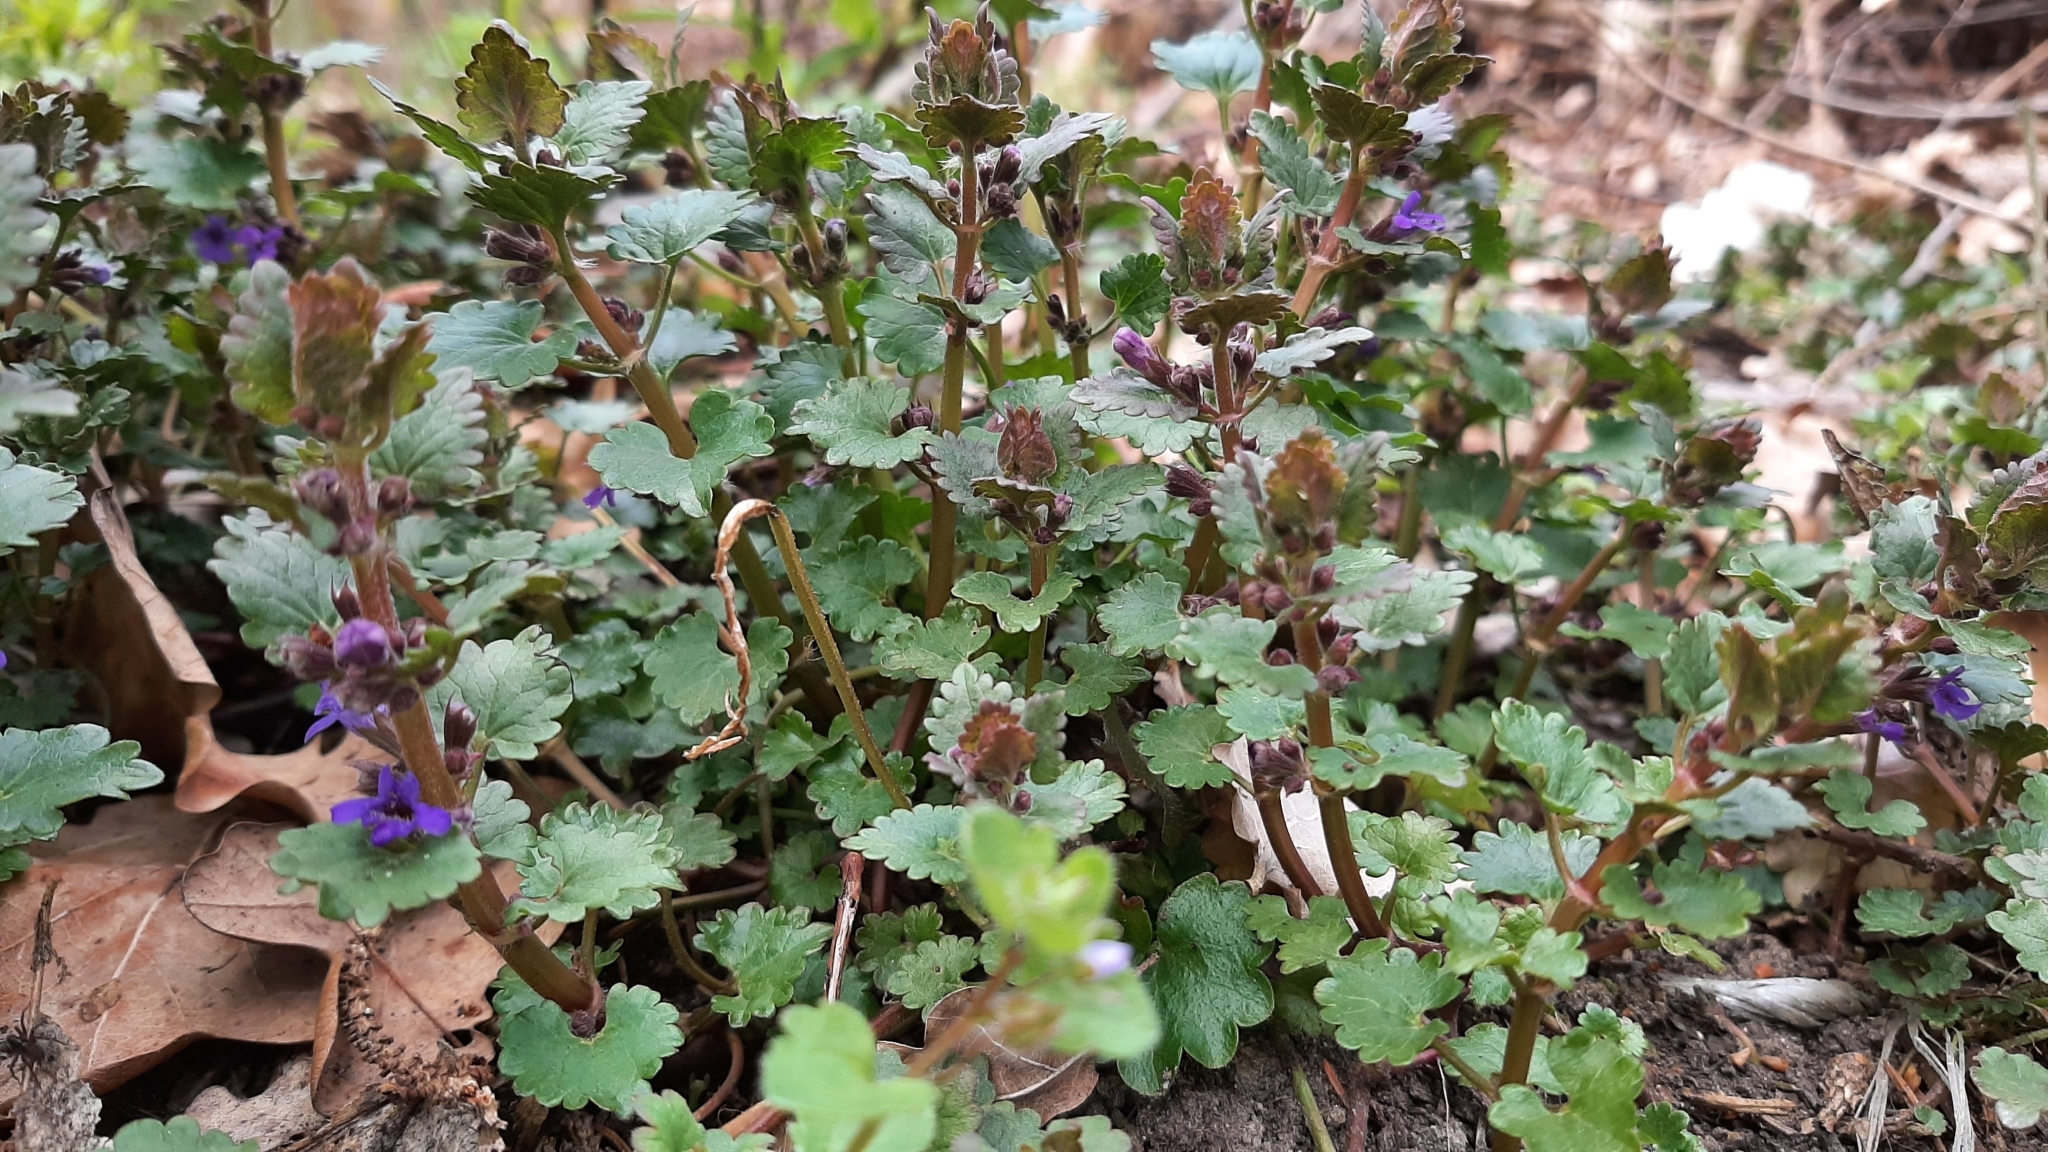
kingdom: Plantae
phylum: Tracheophyta
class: Magnoliopsida
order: Lamiales
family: Lamiaceae
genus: Glechoma
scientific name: Glechoma hederacea
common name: Ground ivy
